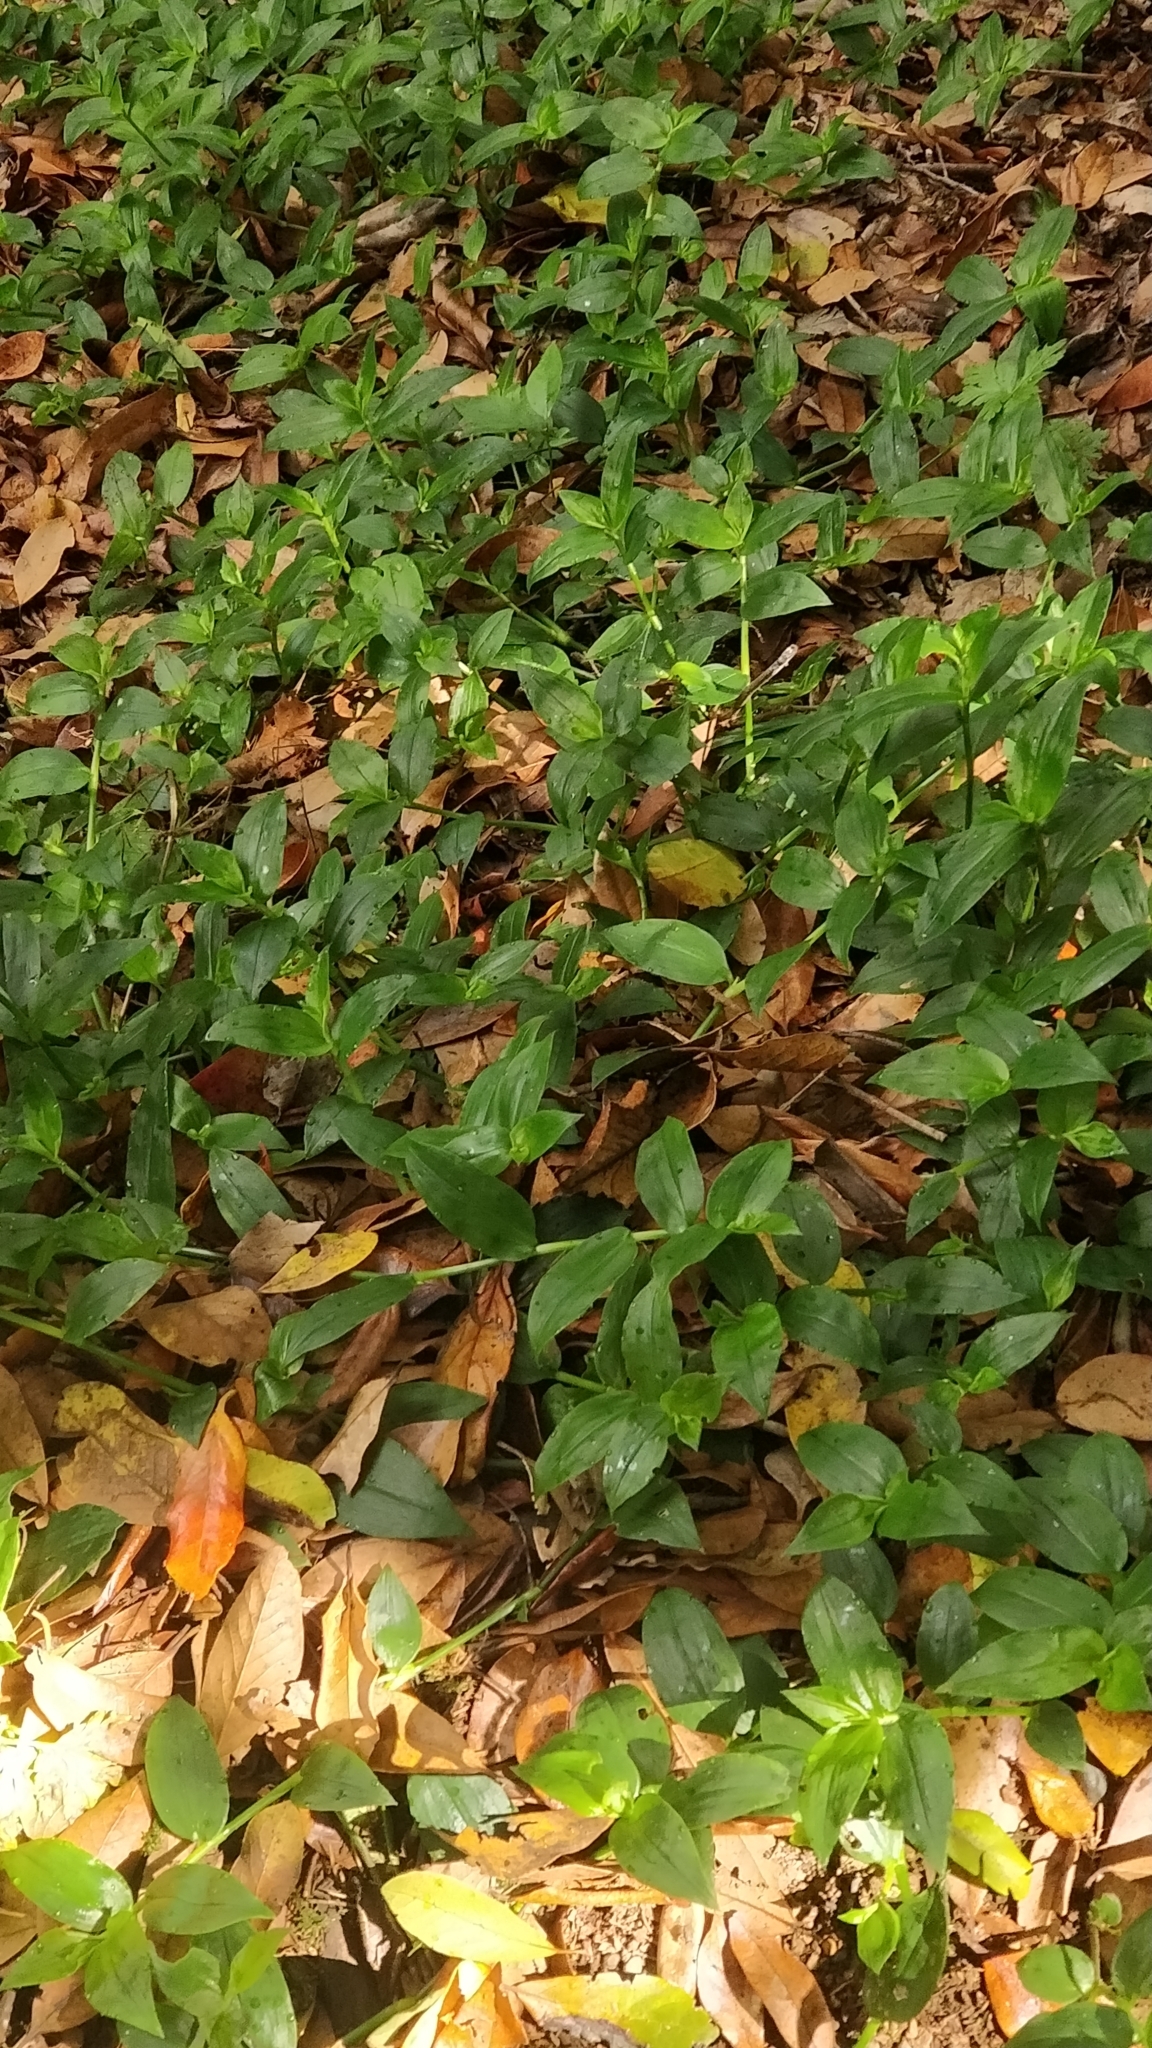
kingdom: Plantae
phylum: Tracheophyta
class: Liliopsida
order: Commelinales
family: Commelinaceae
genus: Tradescantia
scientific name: Tradescantia fluminensis
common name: Wandering-jew
